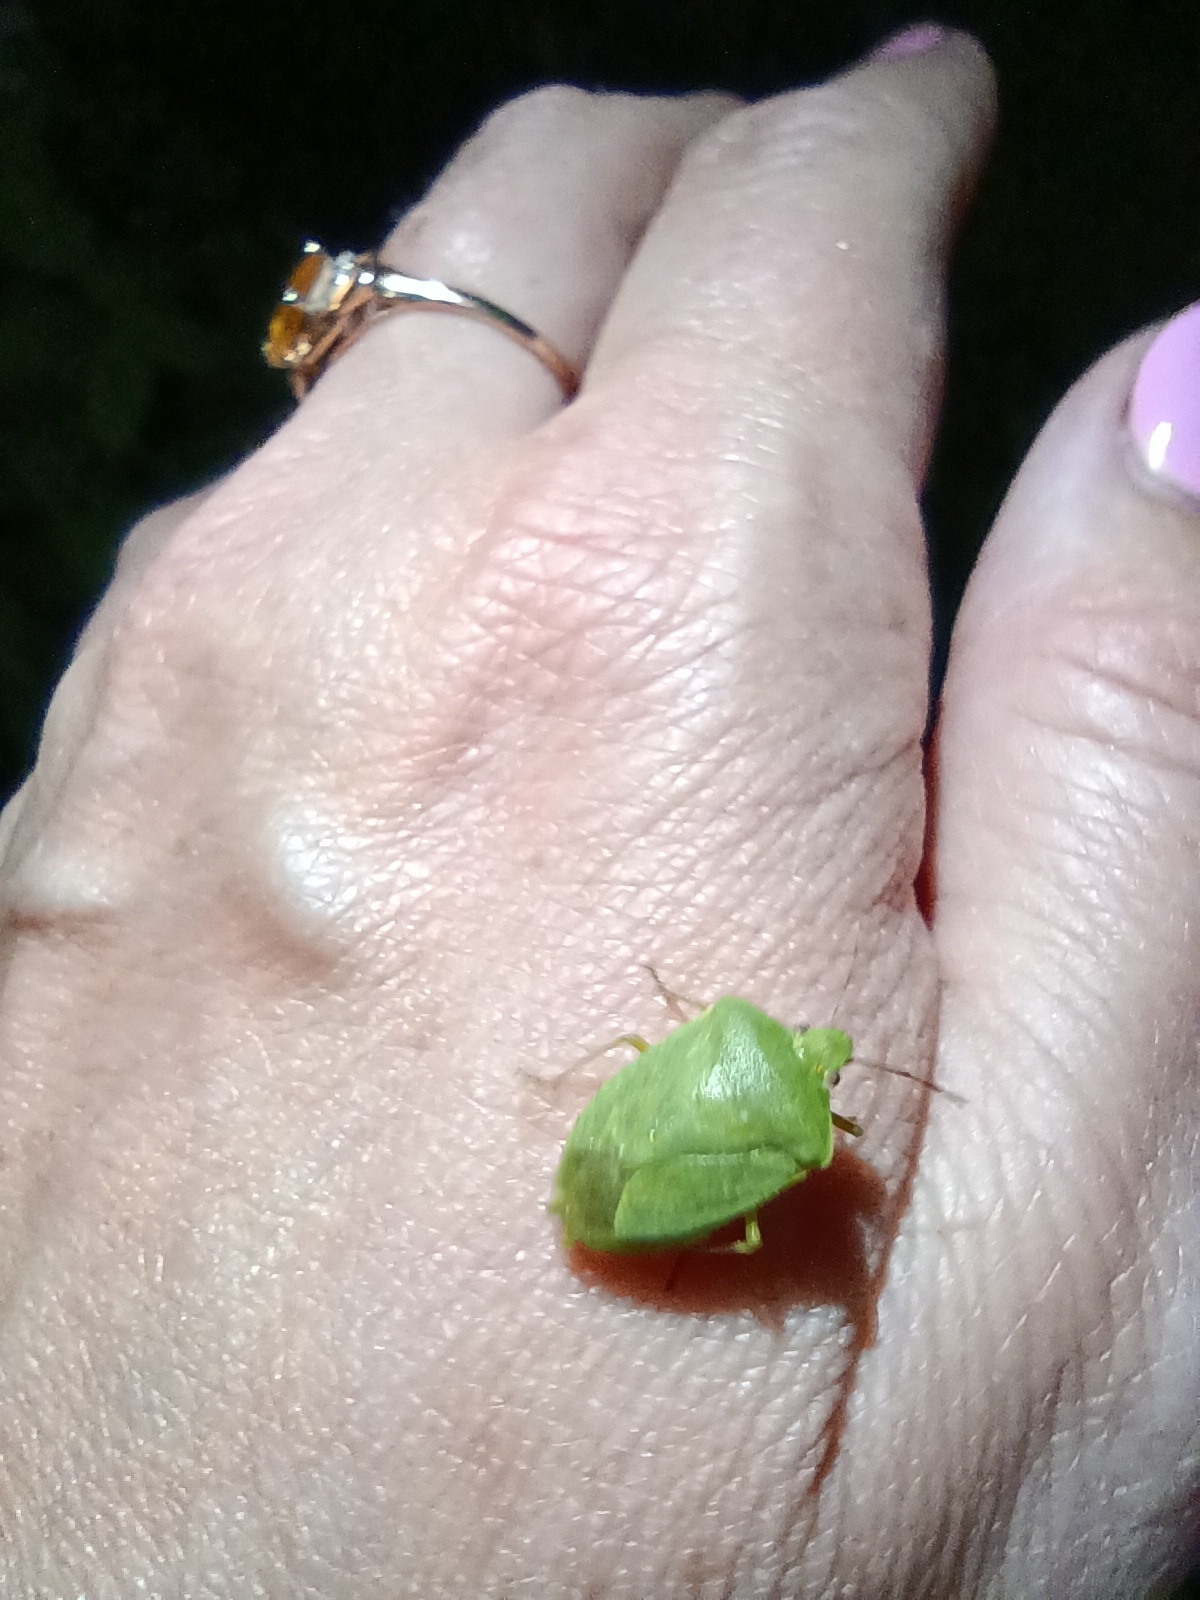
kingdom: Animalia
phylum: Arthropoda
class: Insecta
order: Hemiptera
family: Pentatomidae
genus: Nezara
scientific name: Nezara viridula
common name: Southern green stink bug
